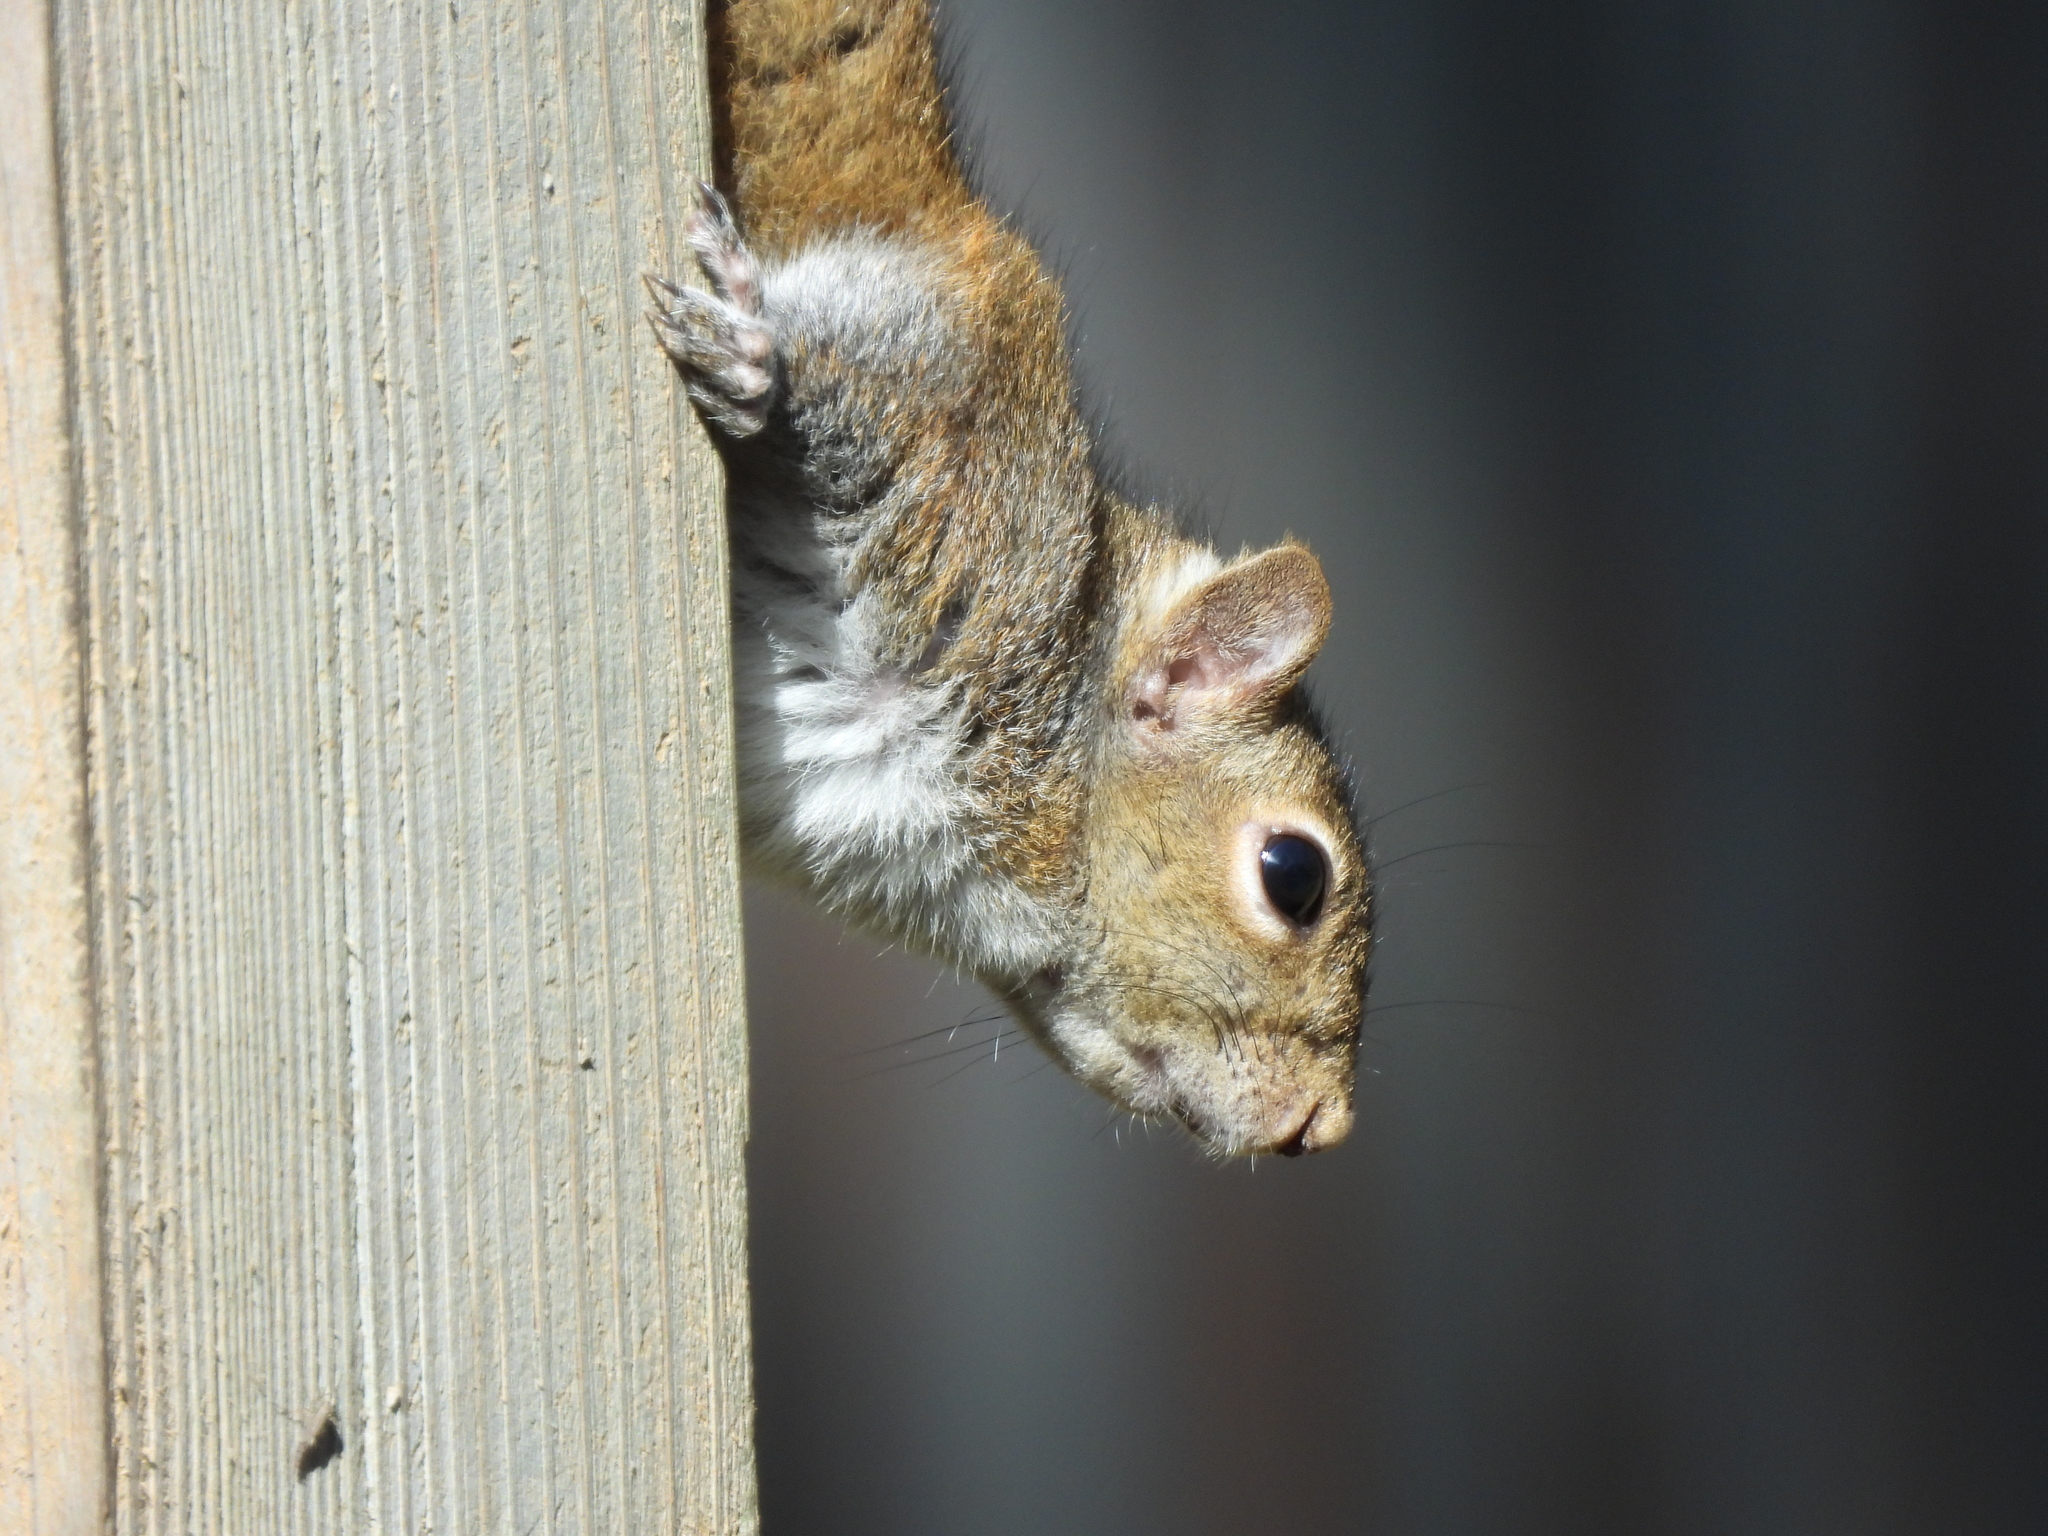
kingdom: Animalia
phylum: Chordata
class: Mammalia
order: Rodentia
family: Sciuridae
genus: Sciurus
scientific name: Sciurus carolinensis
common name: Eastern gray squirrel
